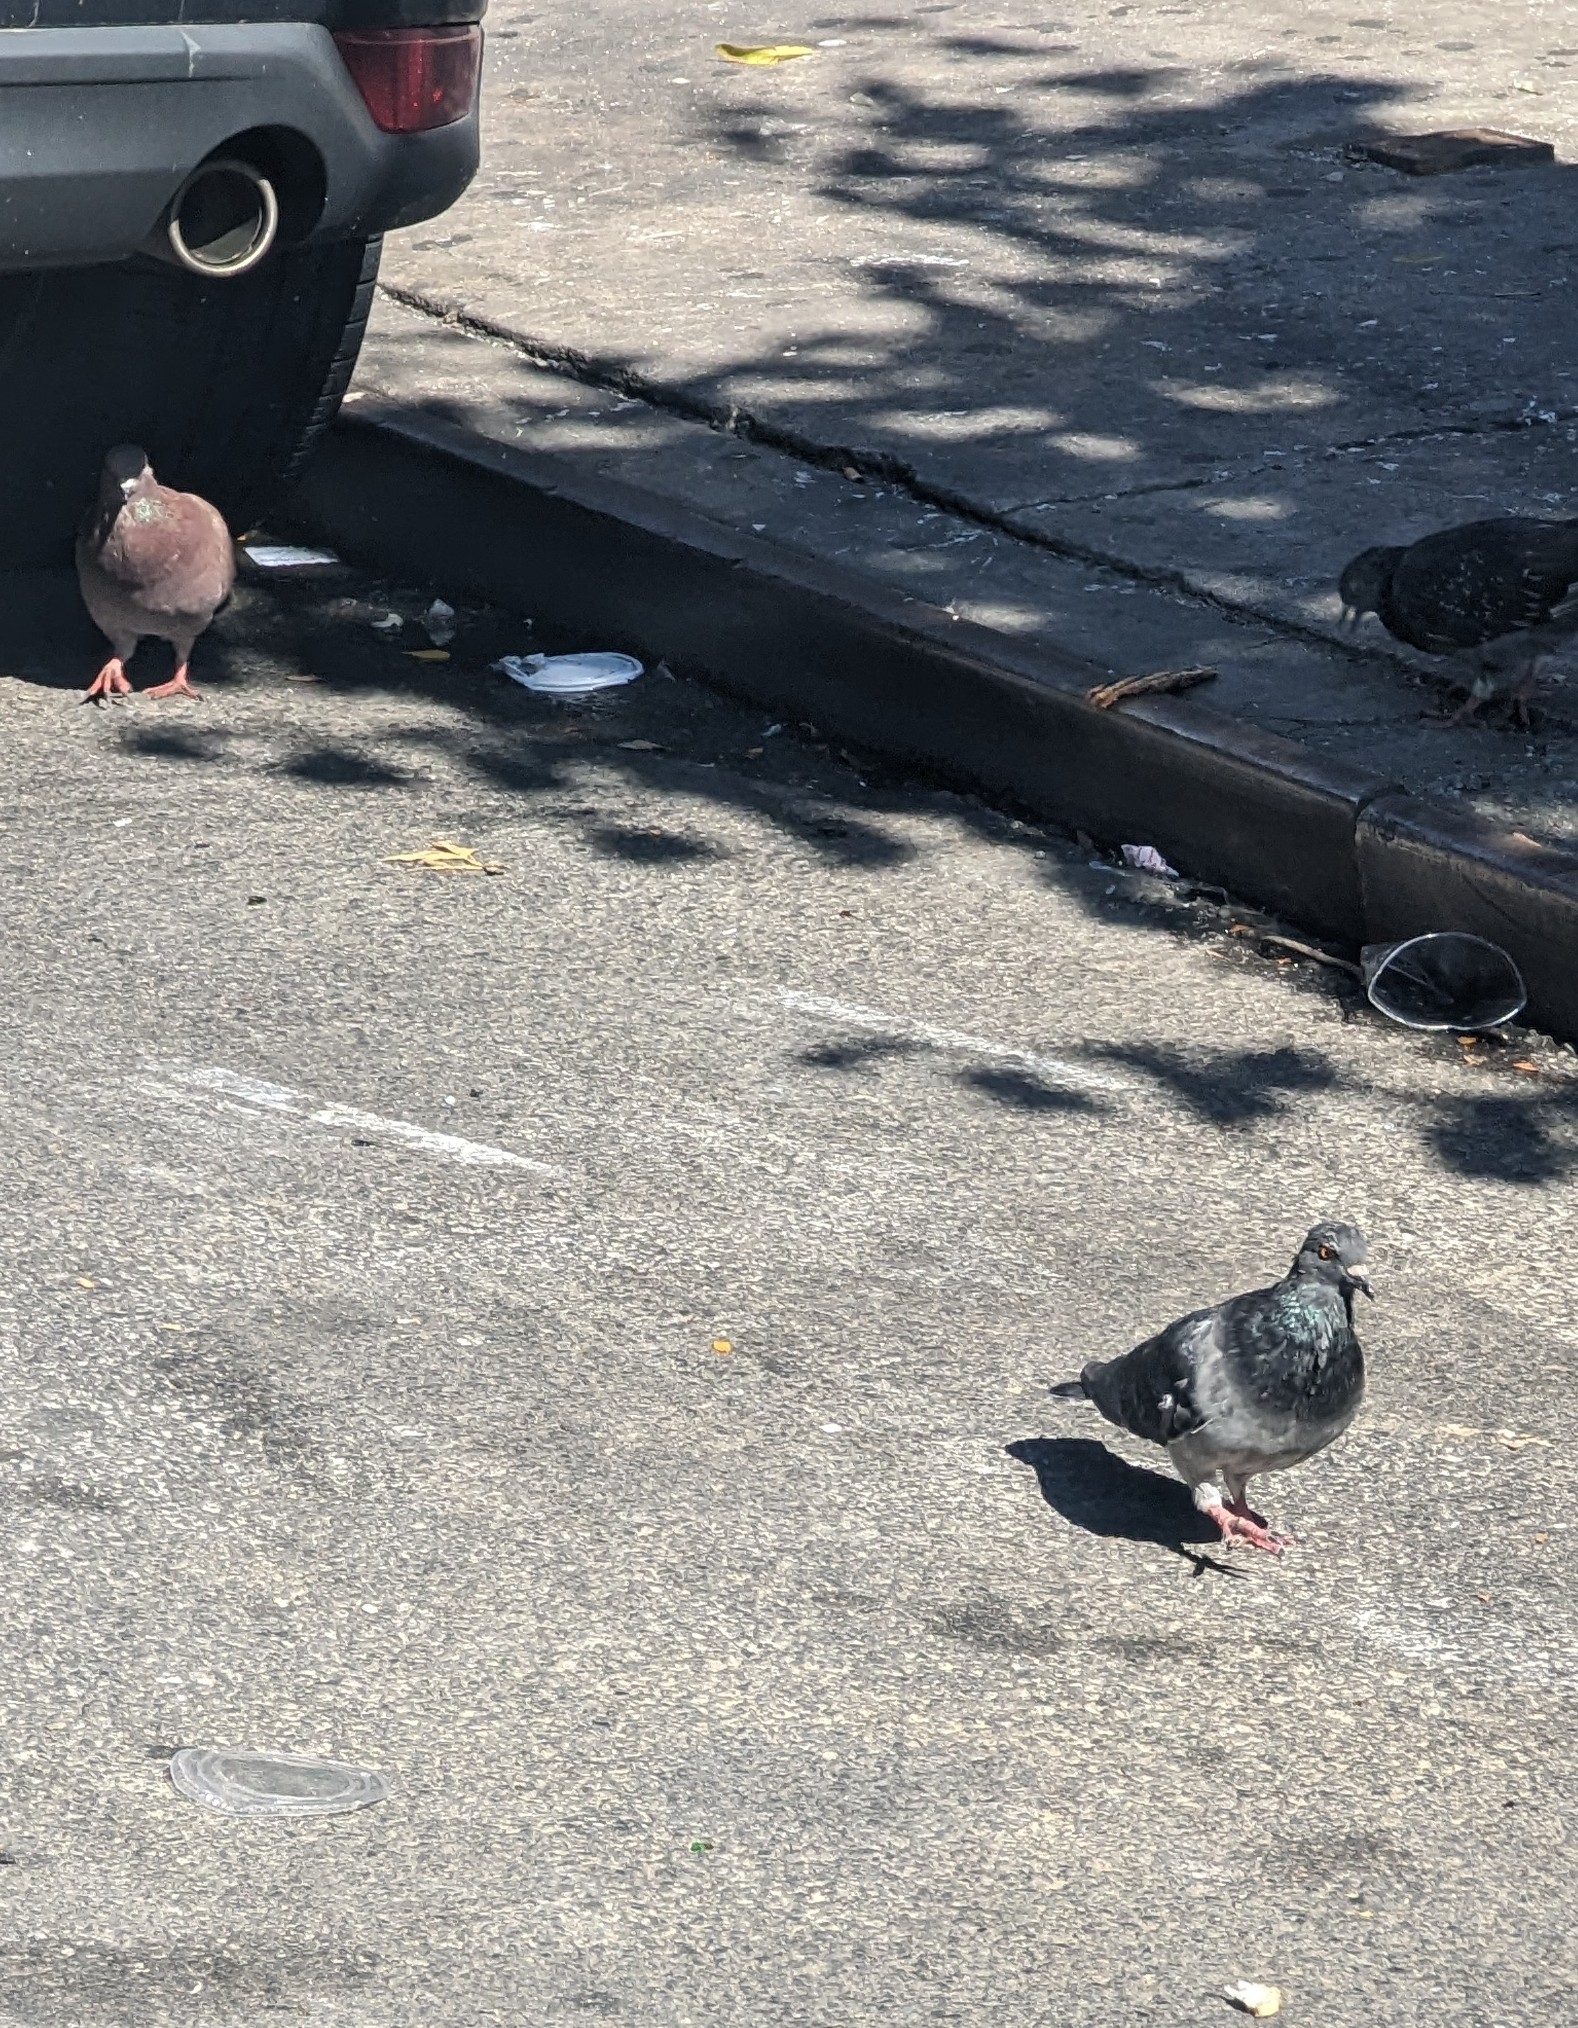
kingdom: Animalia
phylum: Chordata
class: Aves
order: Columbiformes
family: Columbidae
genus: Columba
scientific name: Columba livia
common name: Rock pigeon
